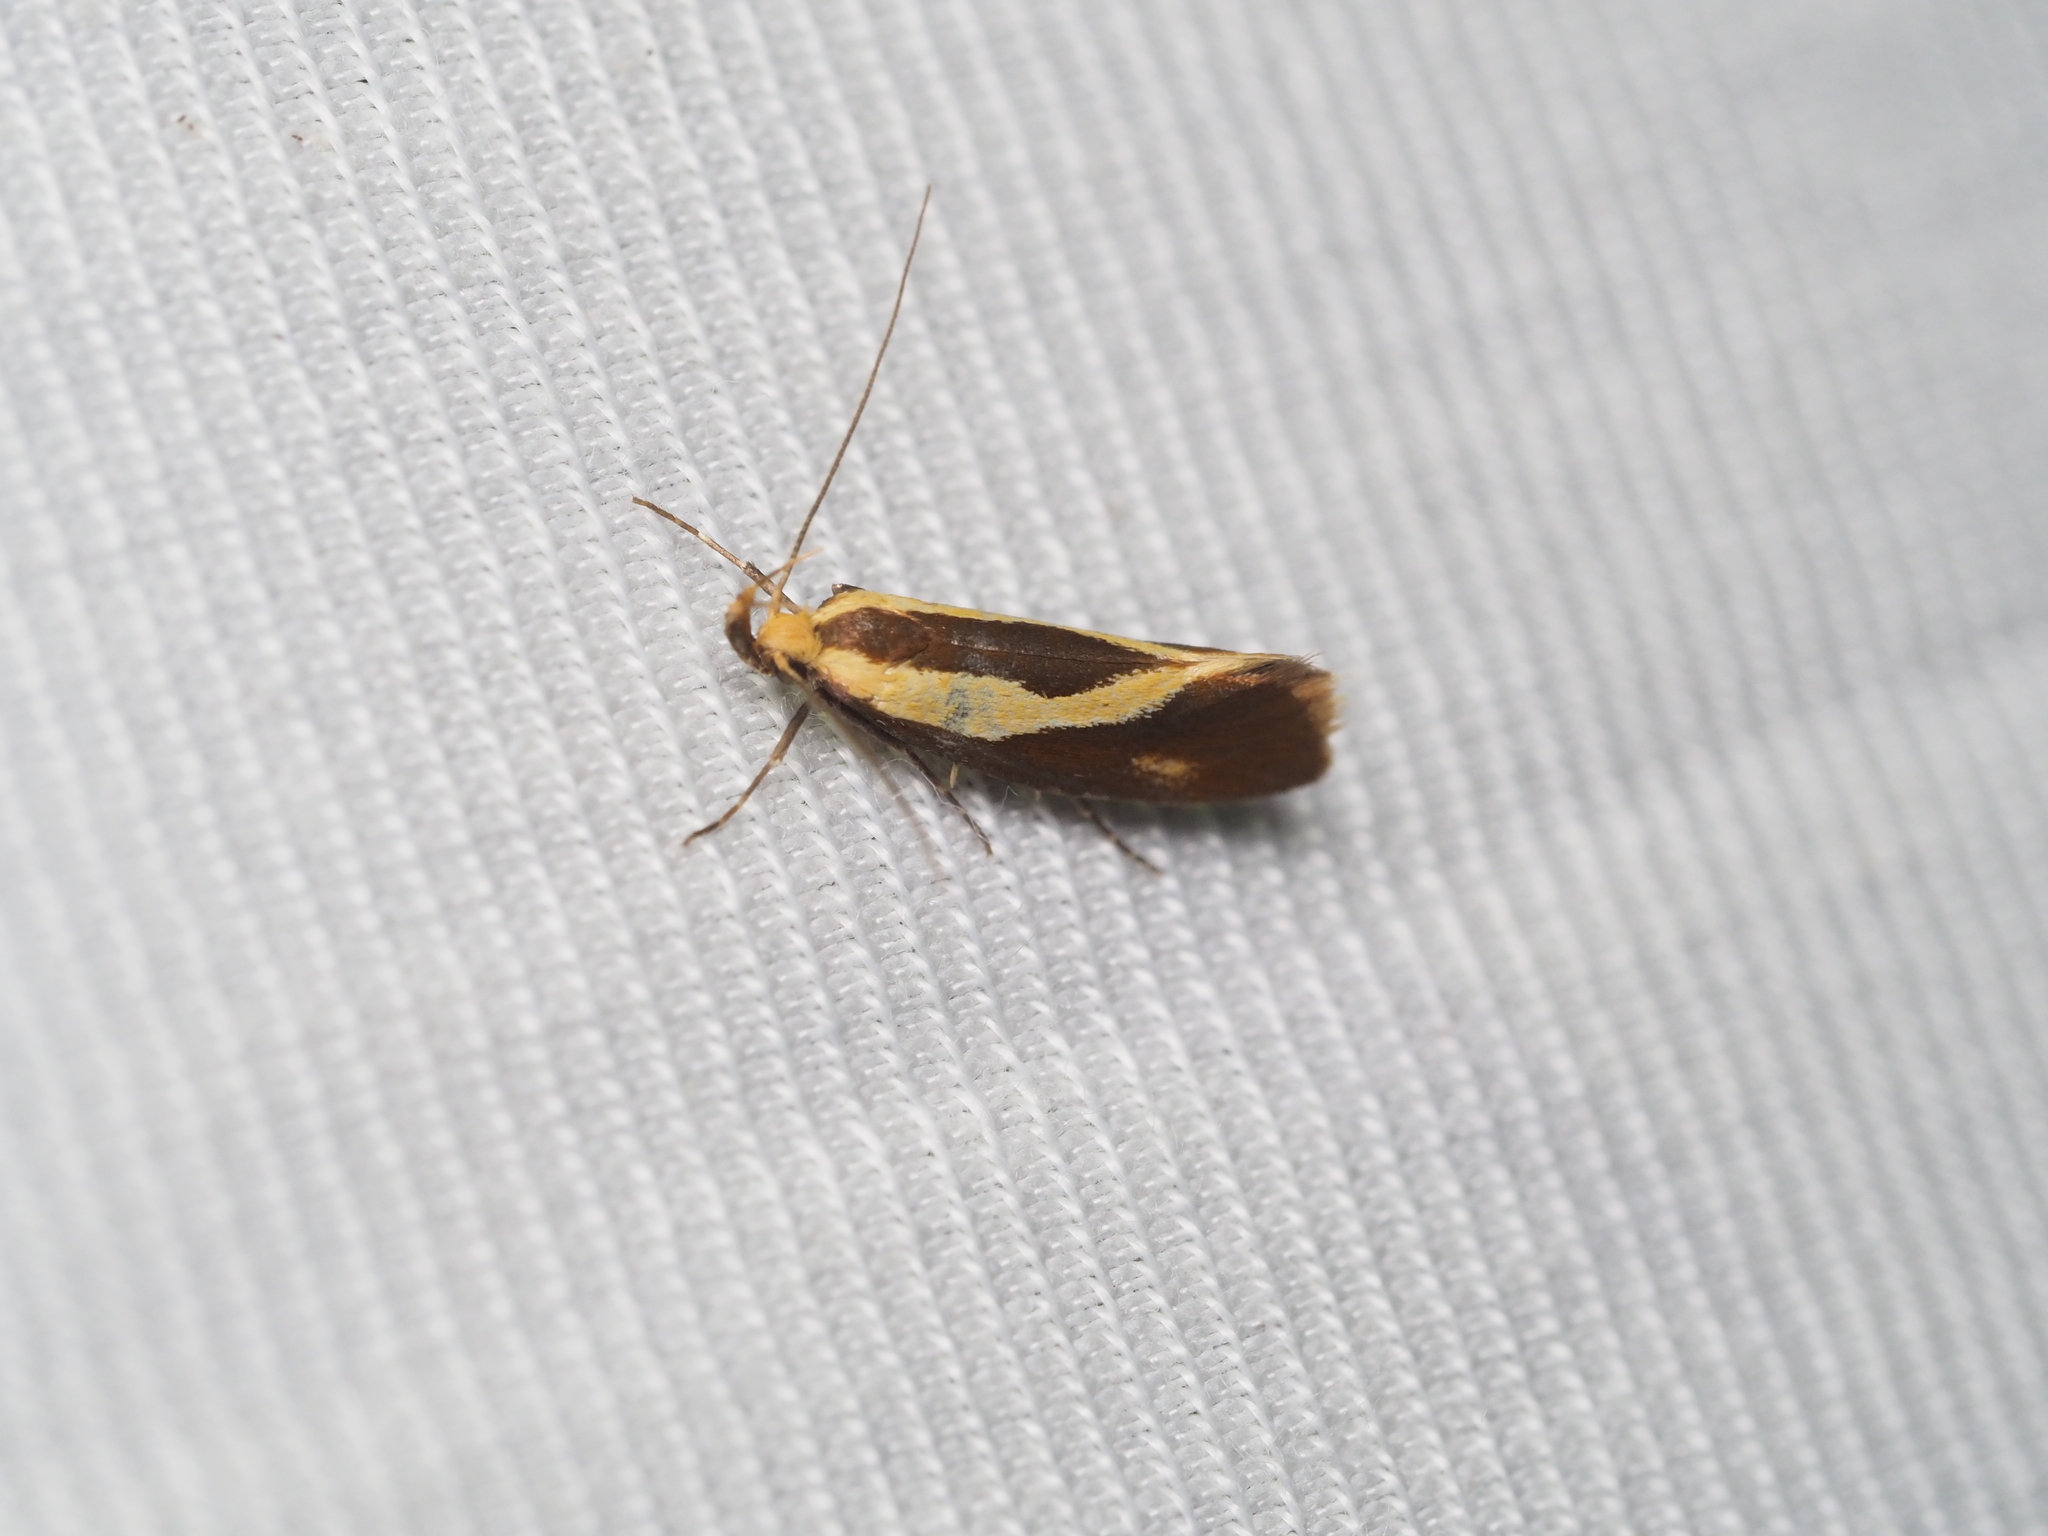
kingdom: Animalia
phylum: Arthropoda
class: Insecta
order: Lepidoptera
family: Oecophoridae
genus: Harpella
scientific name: Harpella forficella
